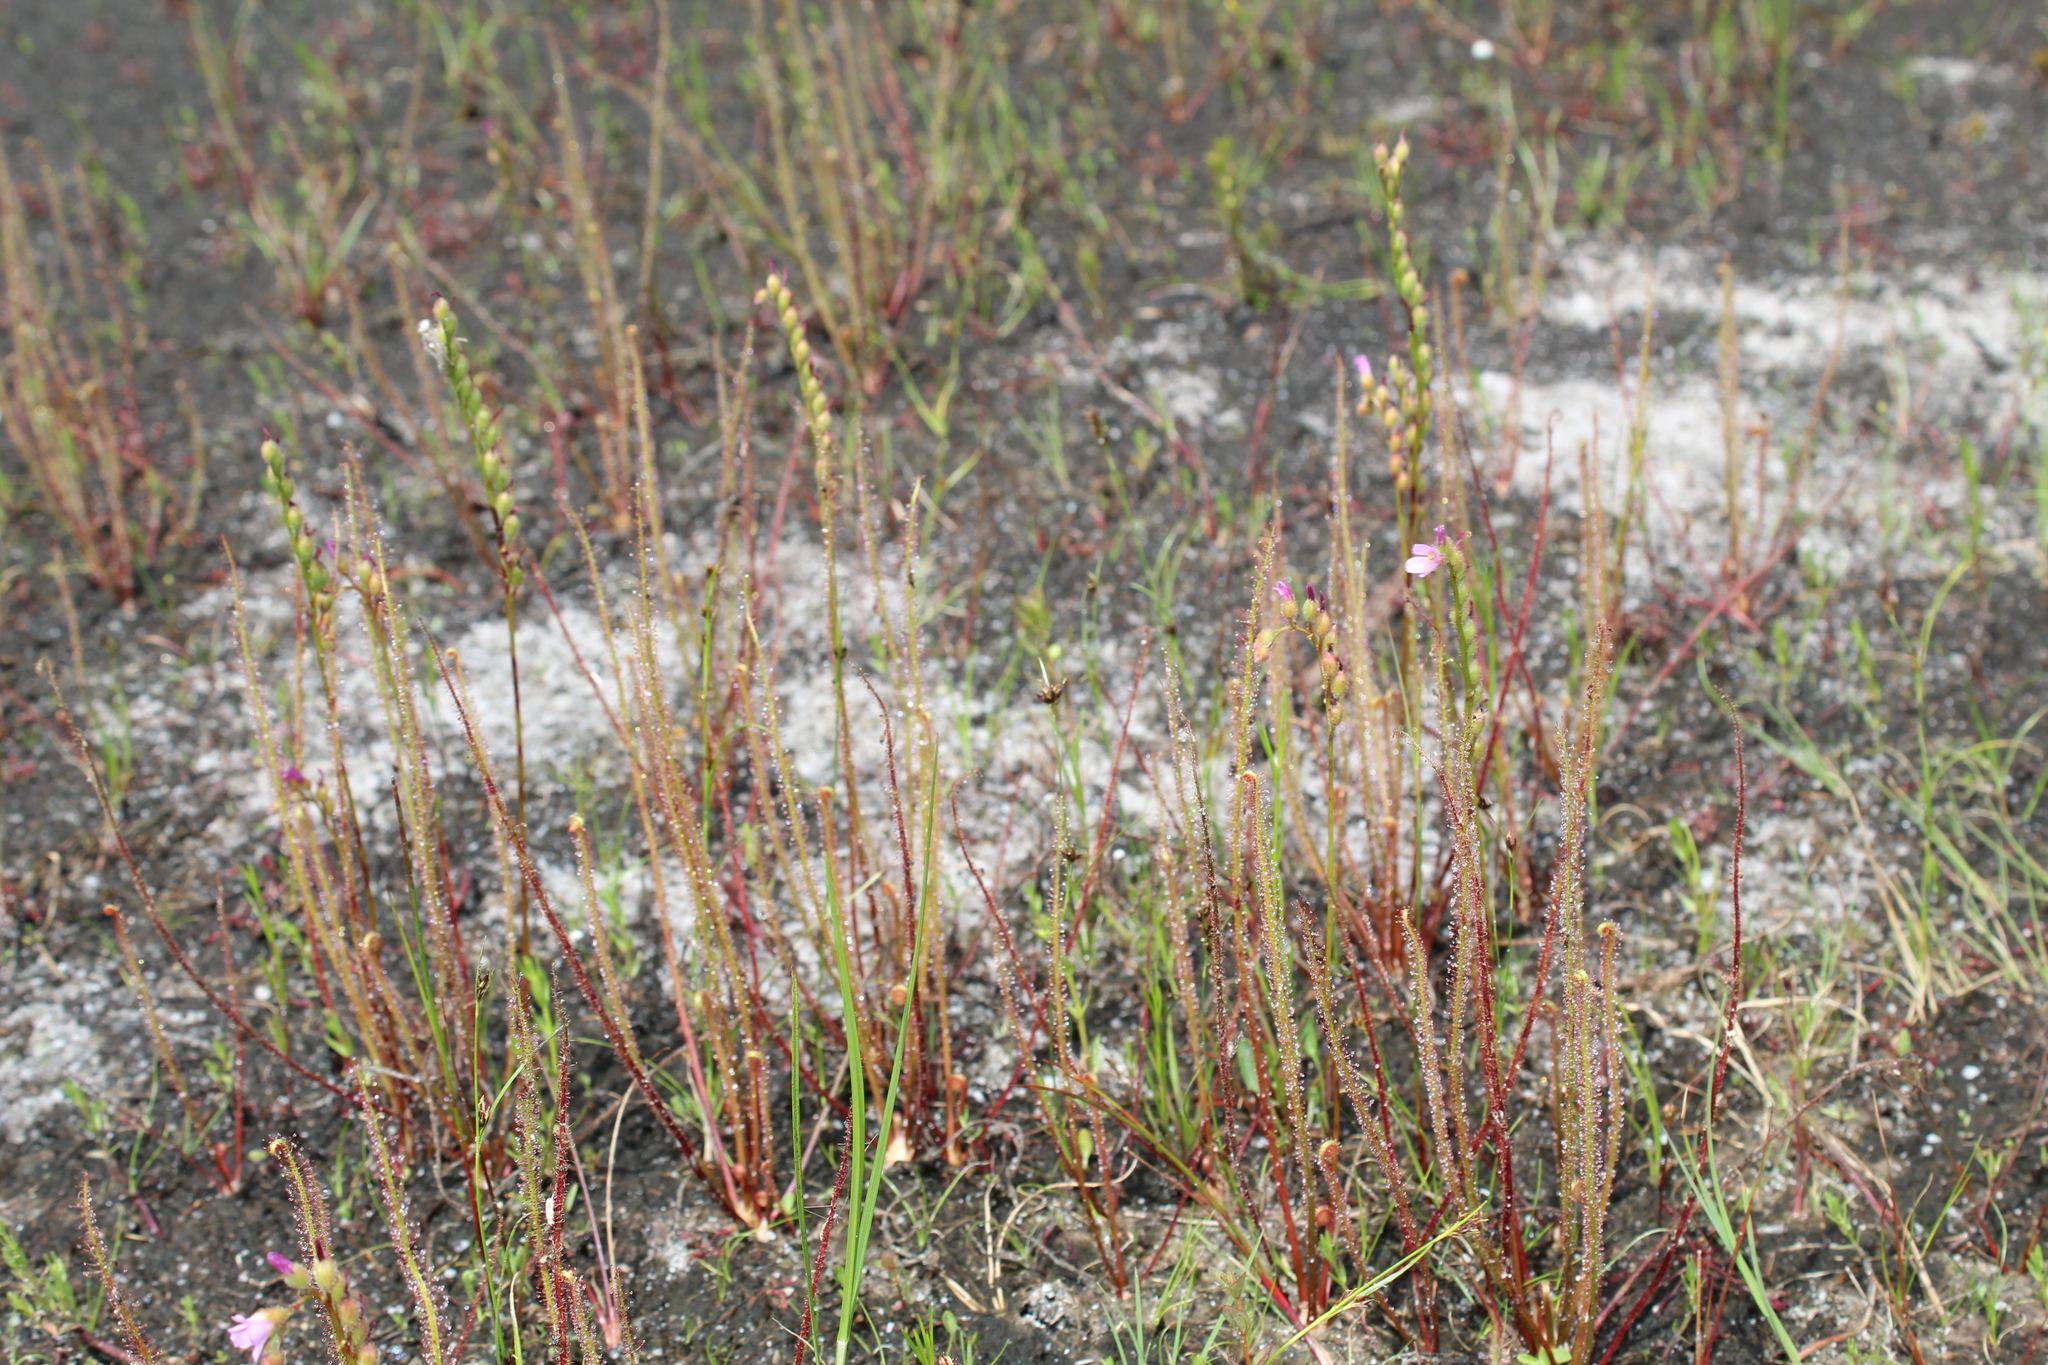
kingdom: Plantae
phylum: Tracheophyta
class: Magnoliopsida
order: Caryophyllales
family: Droseraceae
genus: Drosera
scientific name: Drosera filiformis
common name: Dew-thread
